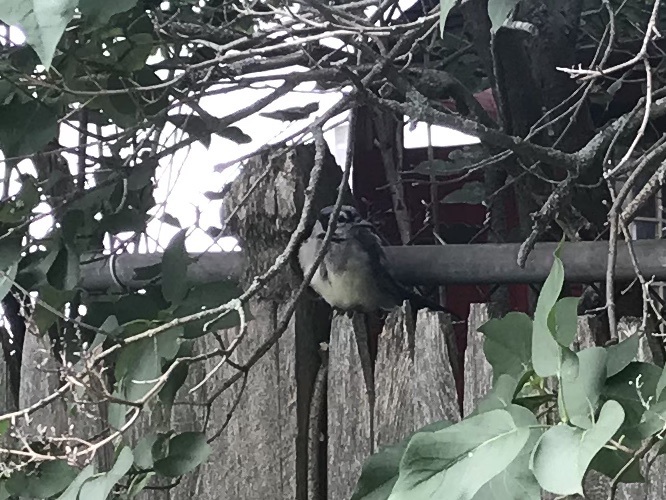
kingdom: Animalia
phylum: Chordata
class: Aves
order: Passeriformes
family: Corvidae
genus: Cyanocitta
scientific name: Cyanocitta cristata
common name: Blue jay
